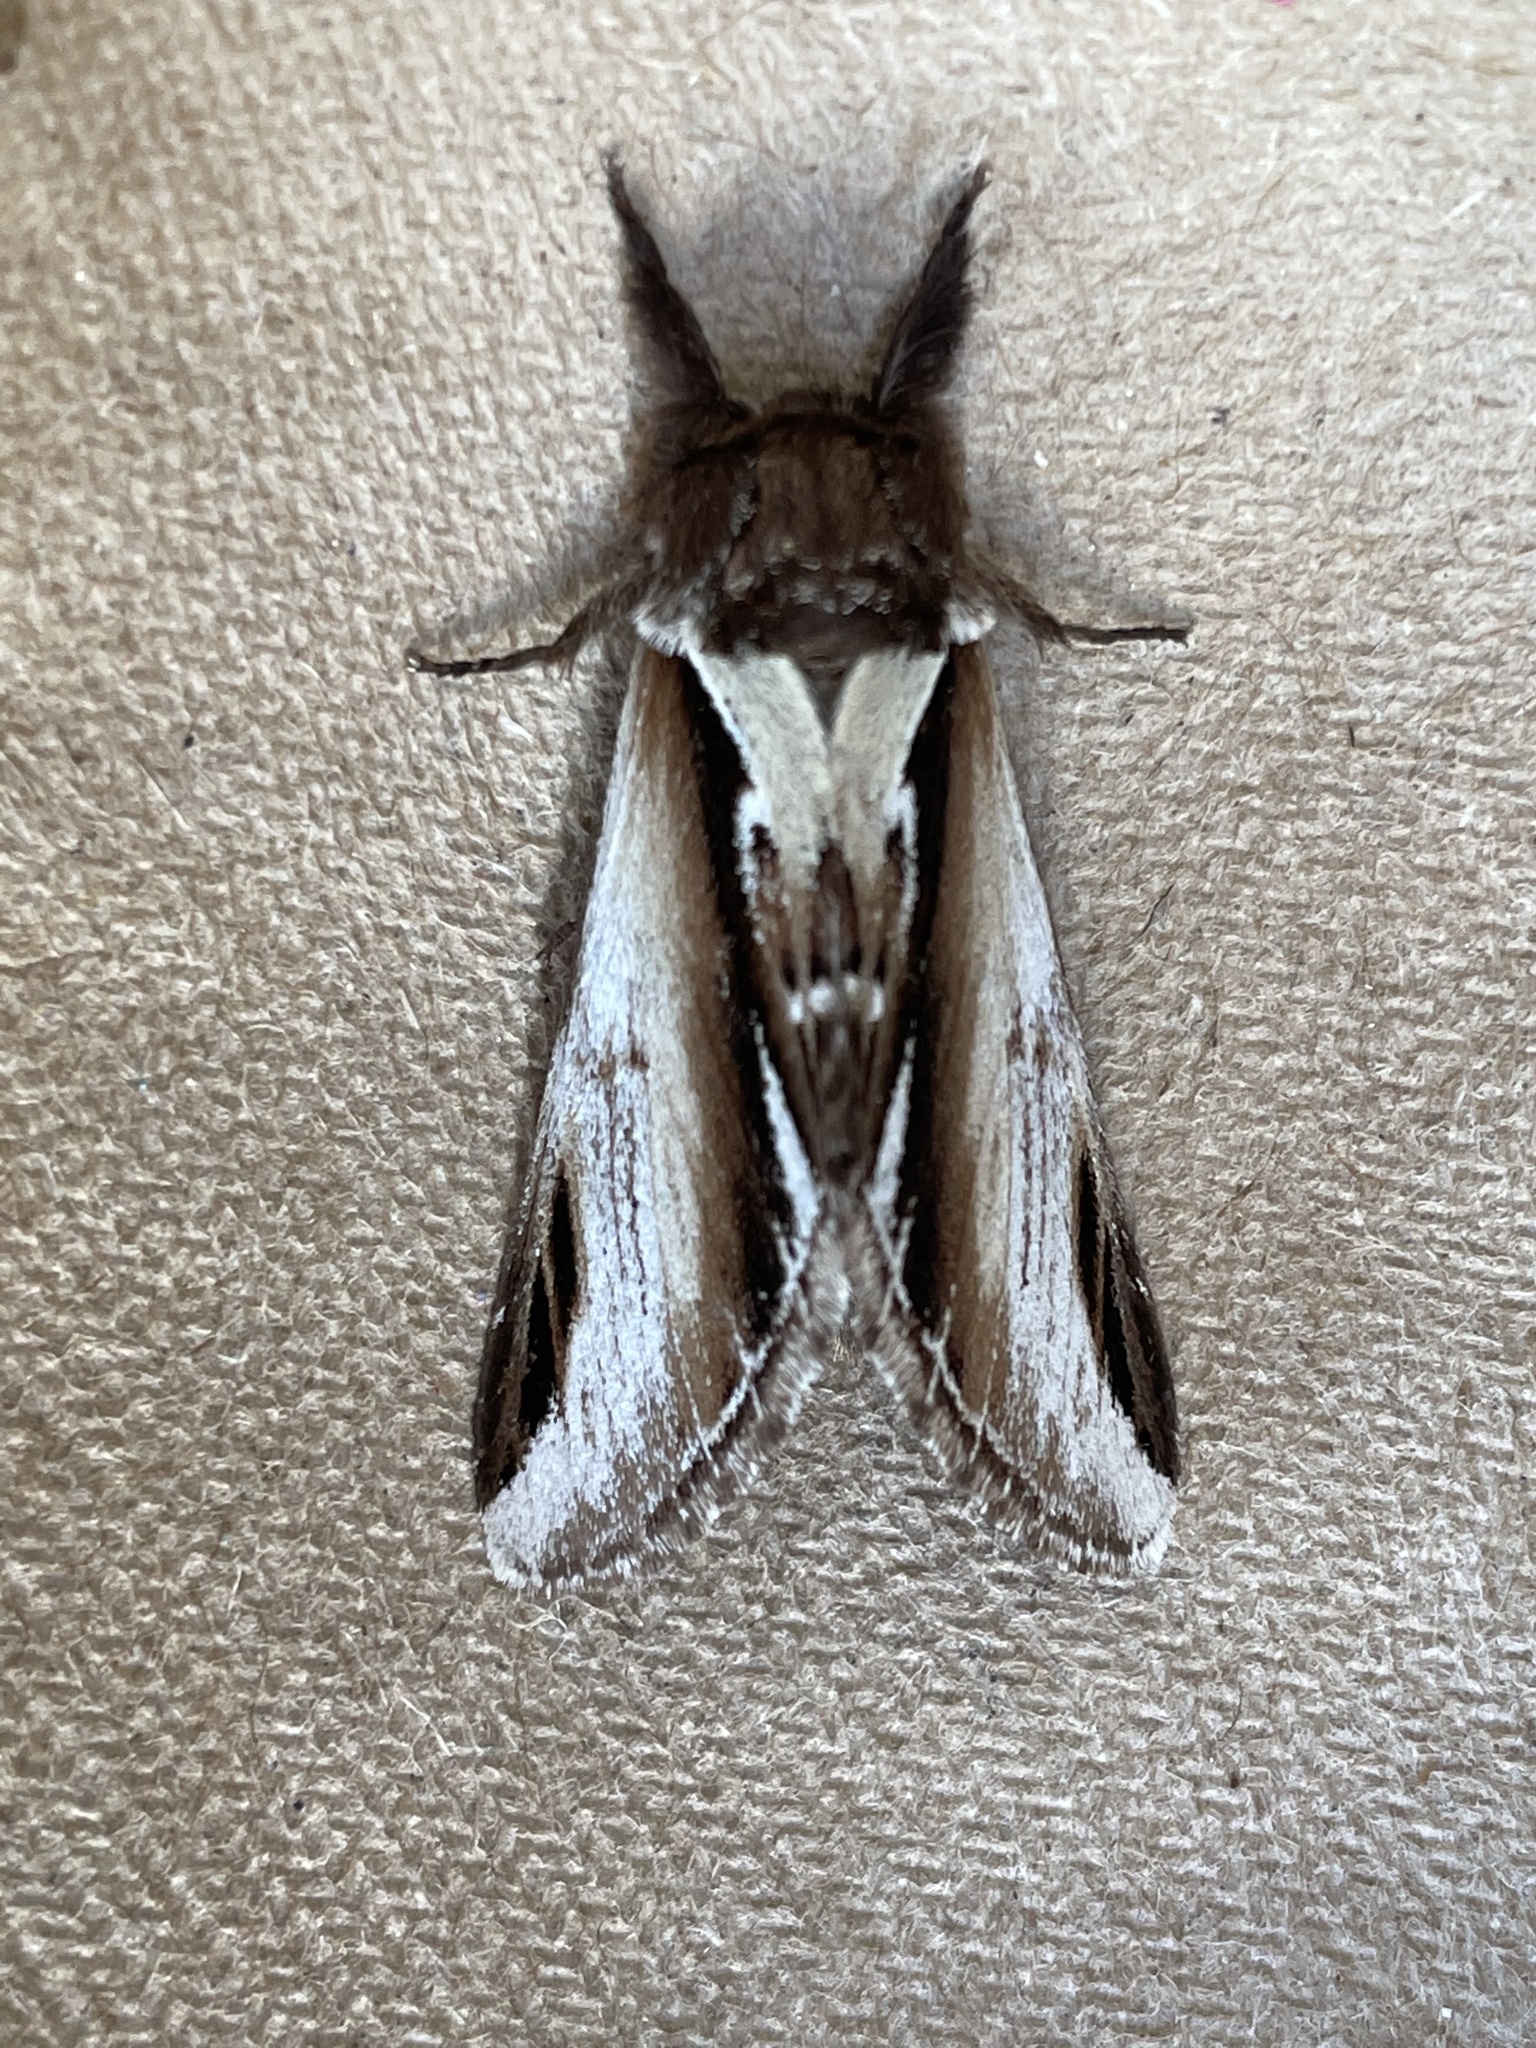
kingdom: Animalia
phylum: Arthropoda
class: Insecta
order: Lepidoptera
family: Notodontidae
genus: Pheosia
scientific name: Pheosia gnoma
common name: Lesser swallow prominent
